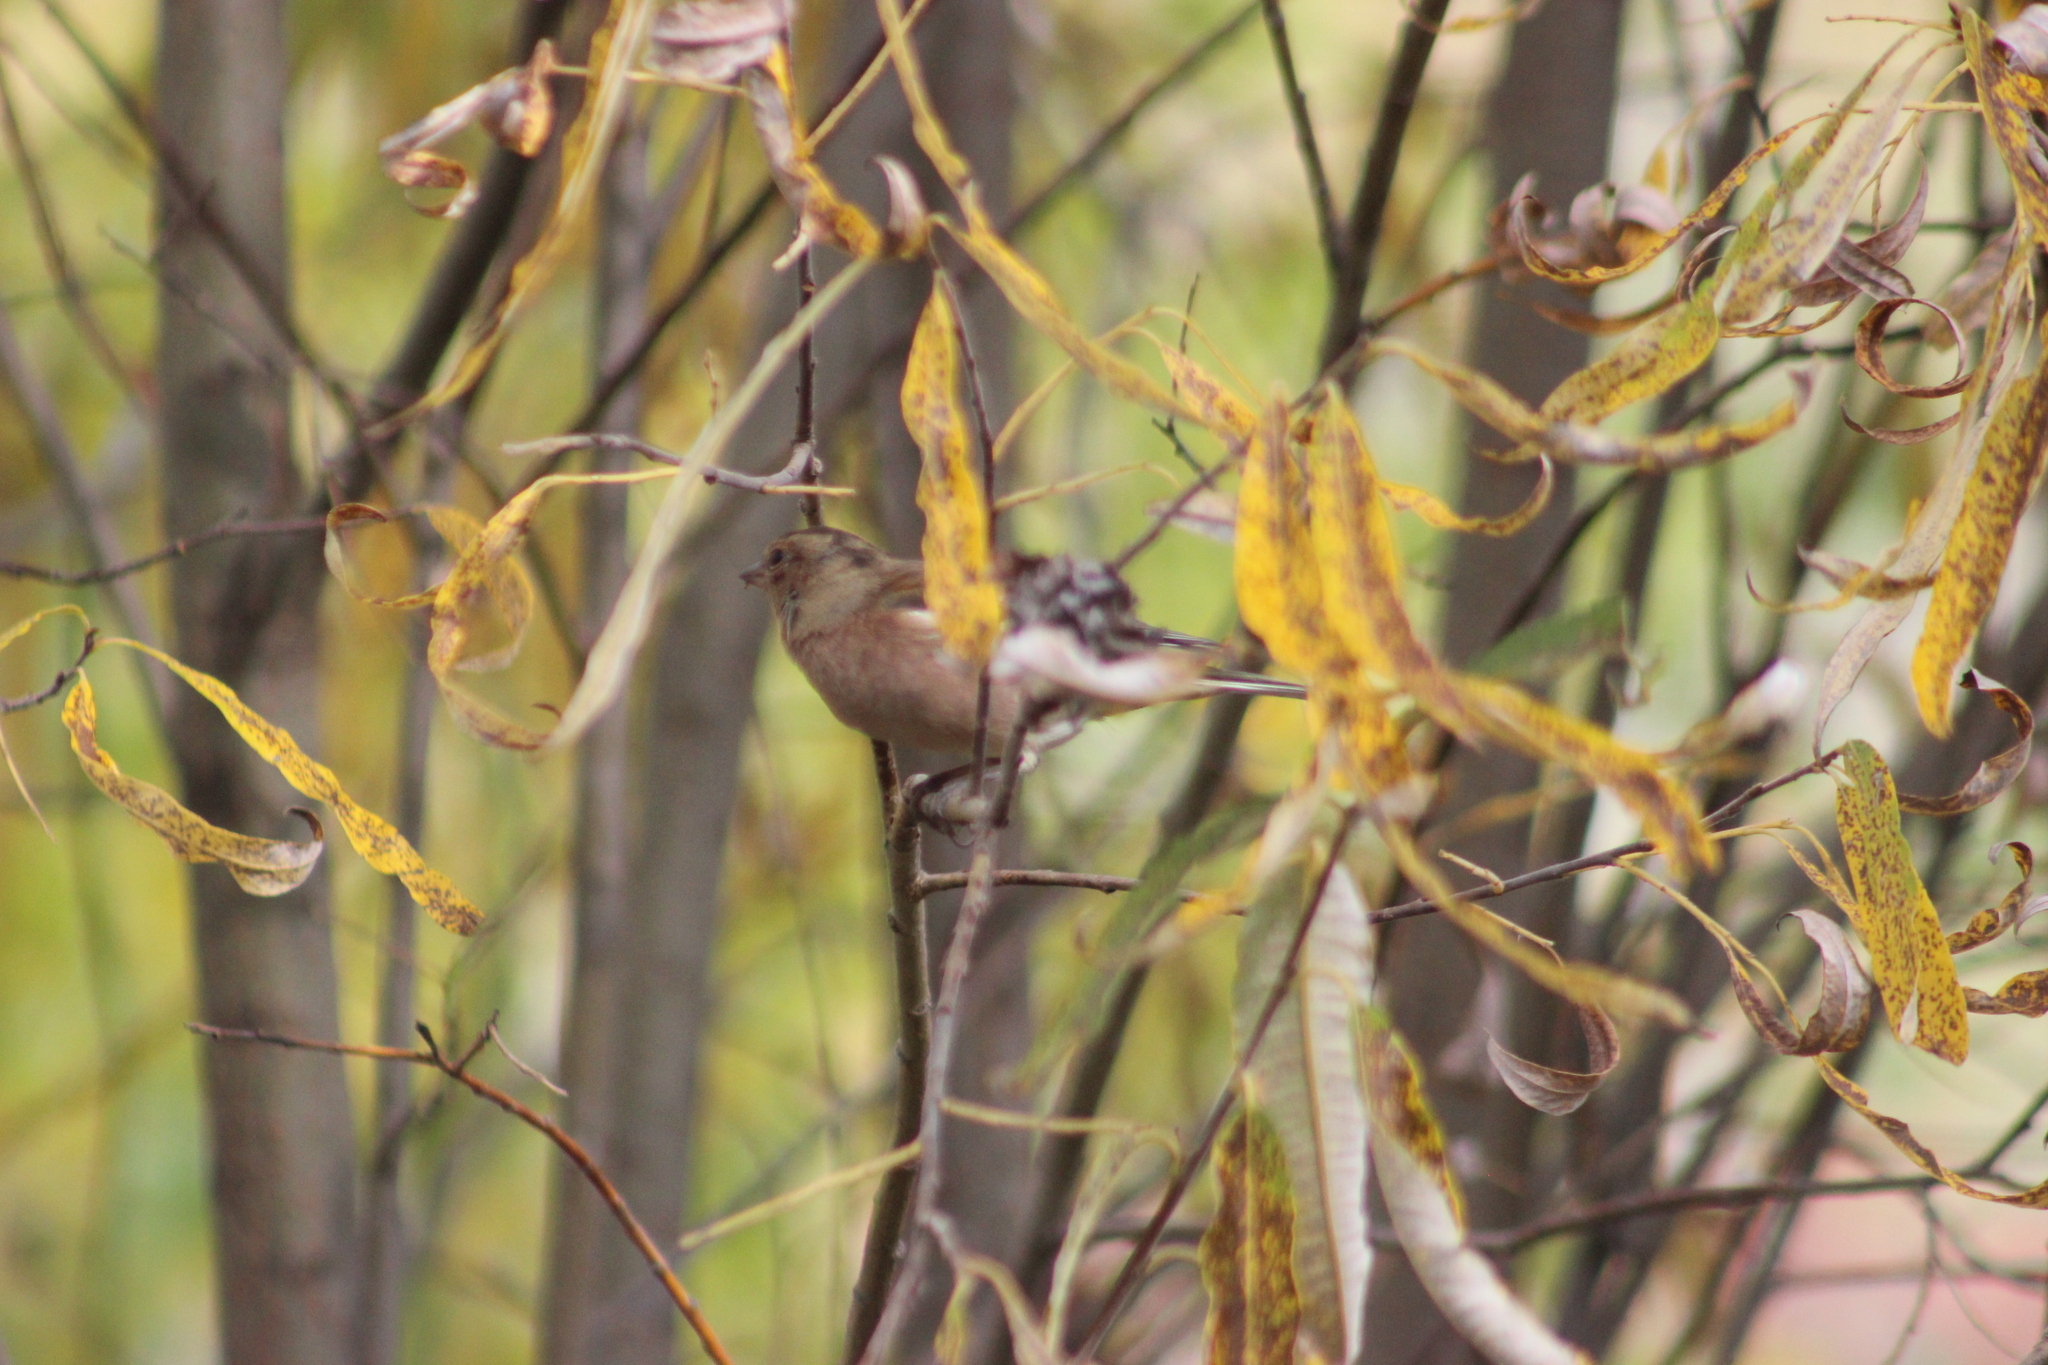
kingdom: Animalia
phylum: Chordata
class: Aves
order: Passeriformes
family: Fringillidae
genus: Fringilla
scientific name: Fringilla coelebs
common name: Common chaffinch
